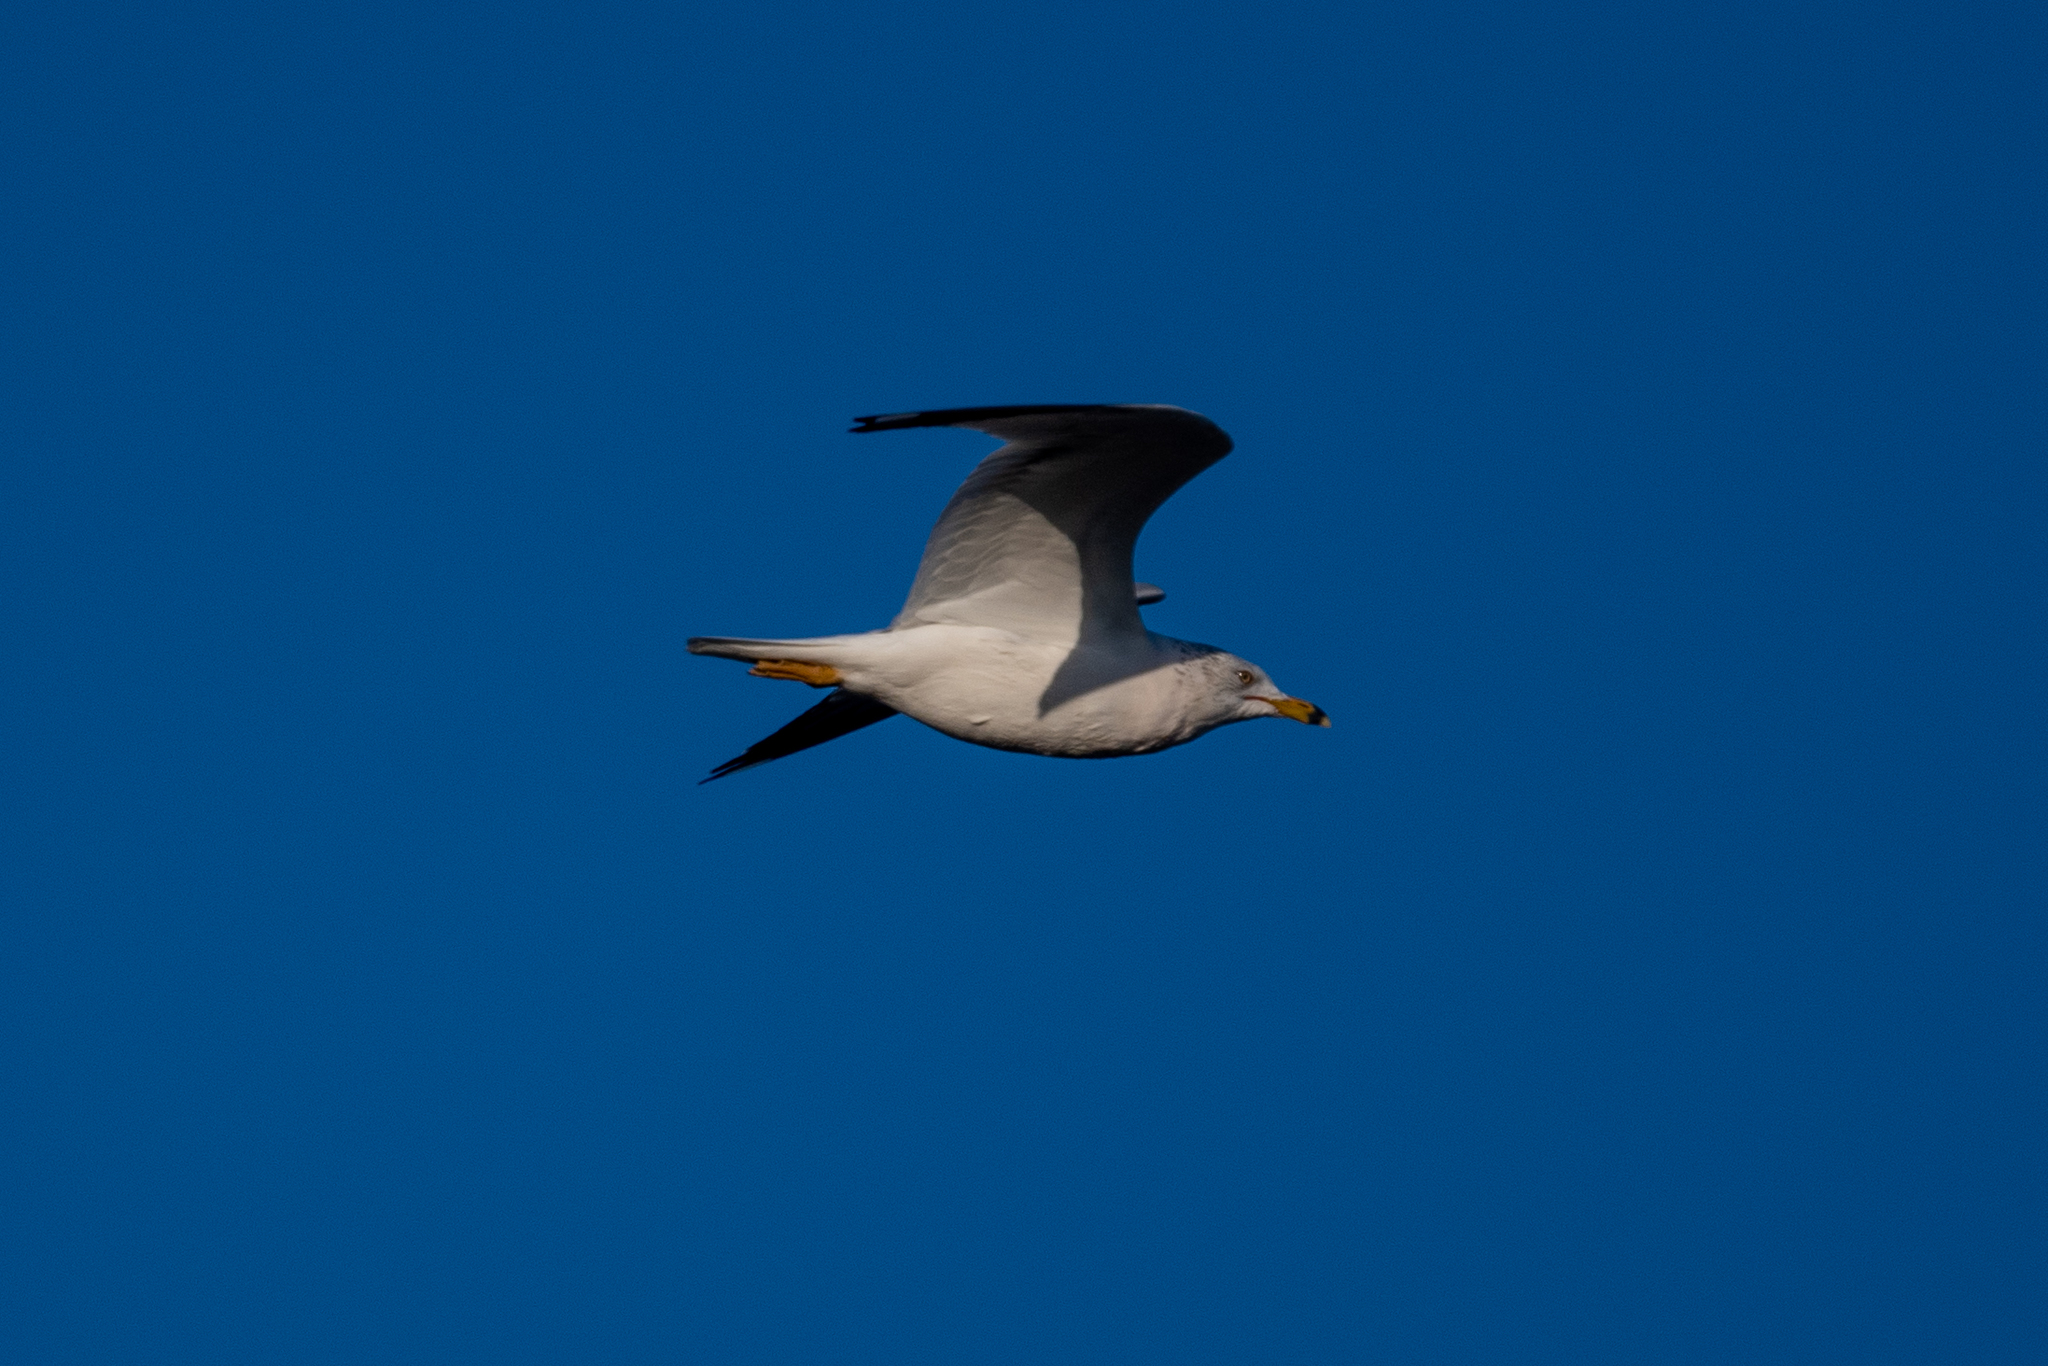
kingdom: Animalia
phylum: Chordata
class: Aves
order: Charadriiformes
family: Laridae
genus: Larus
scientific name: Larus delawarensis
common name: Ring-billed gull
